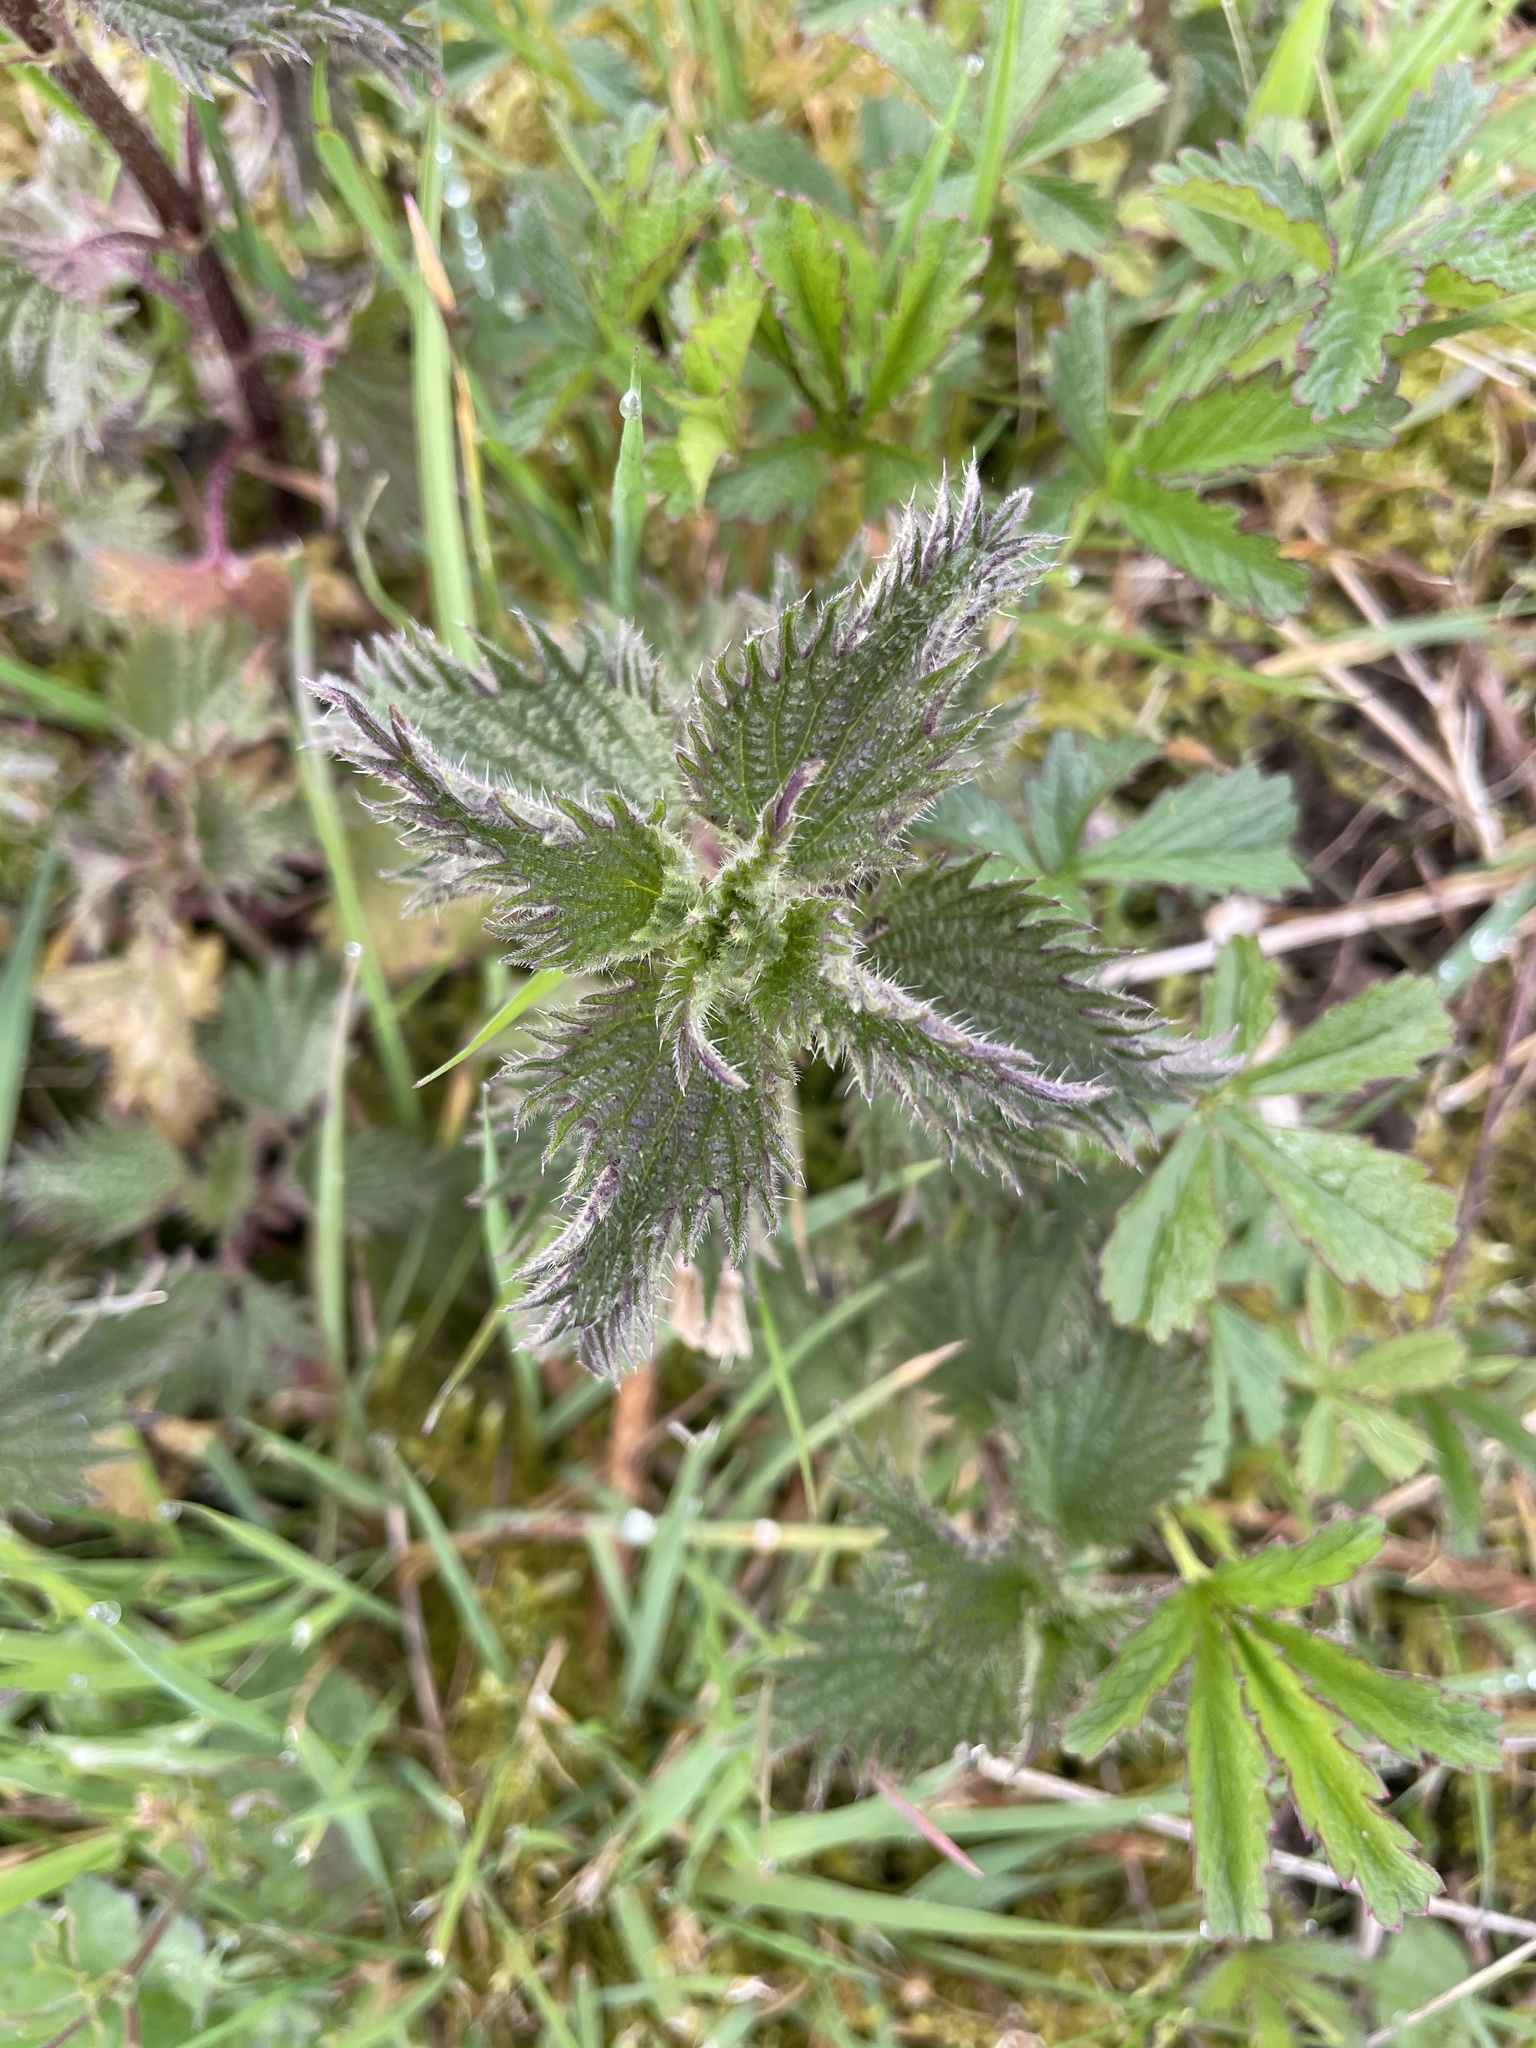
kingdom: Plantae
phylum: Tracheophyta
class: Magnoliopsida
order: Rosales
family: Urticaceae
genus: Urtica
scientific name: Urtica dioica
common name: Common nettle
